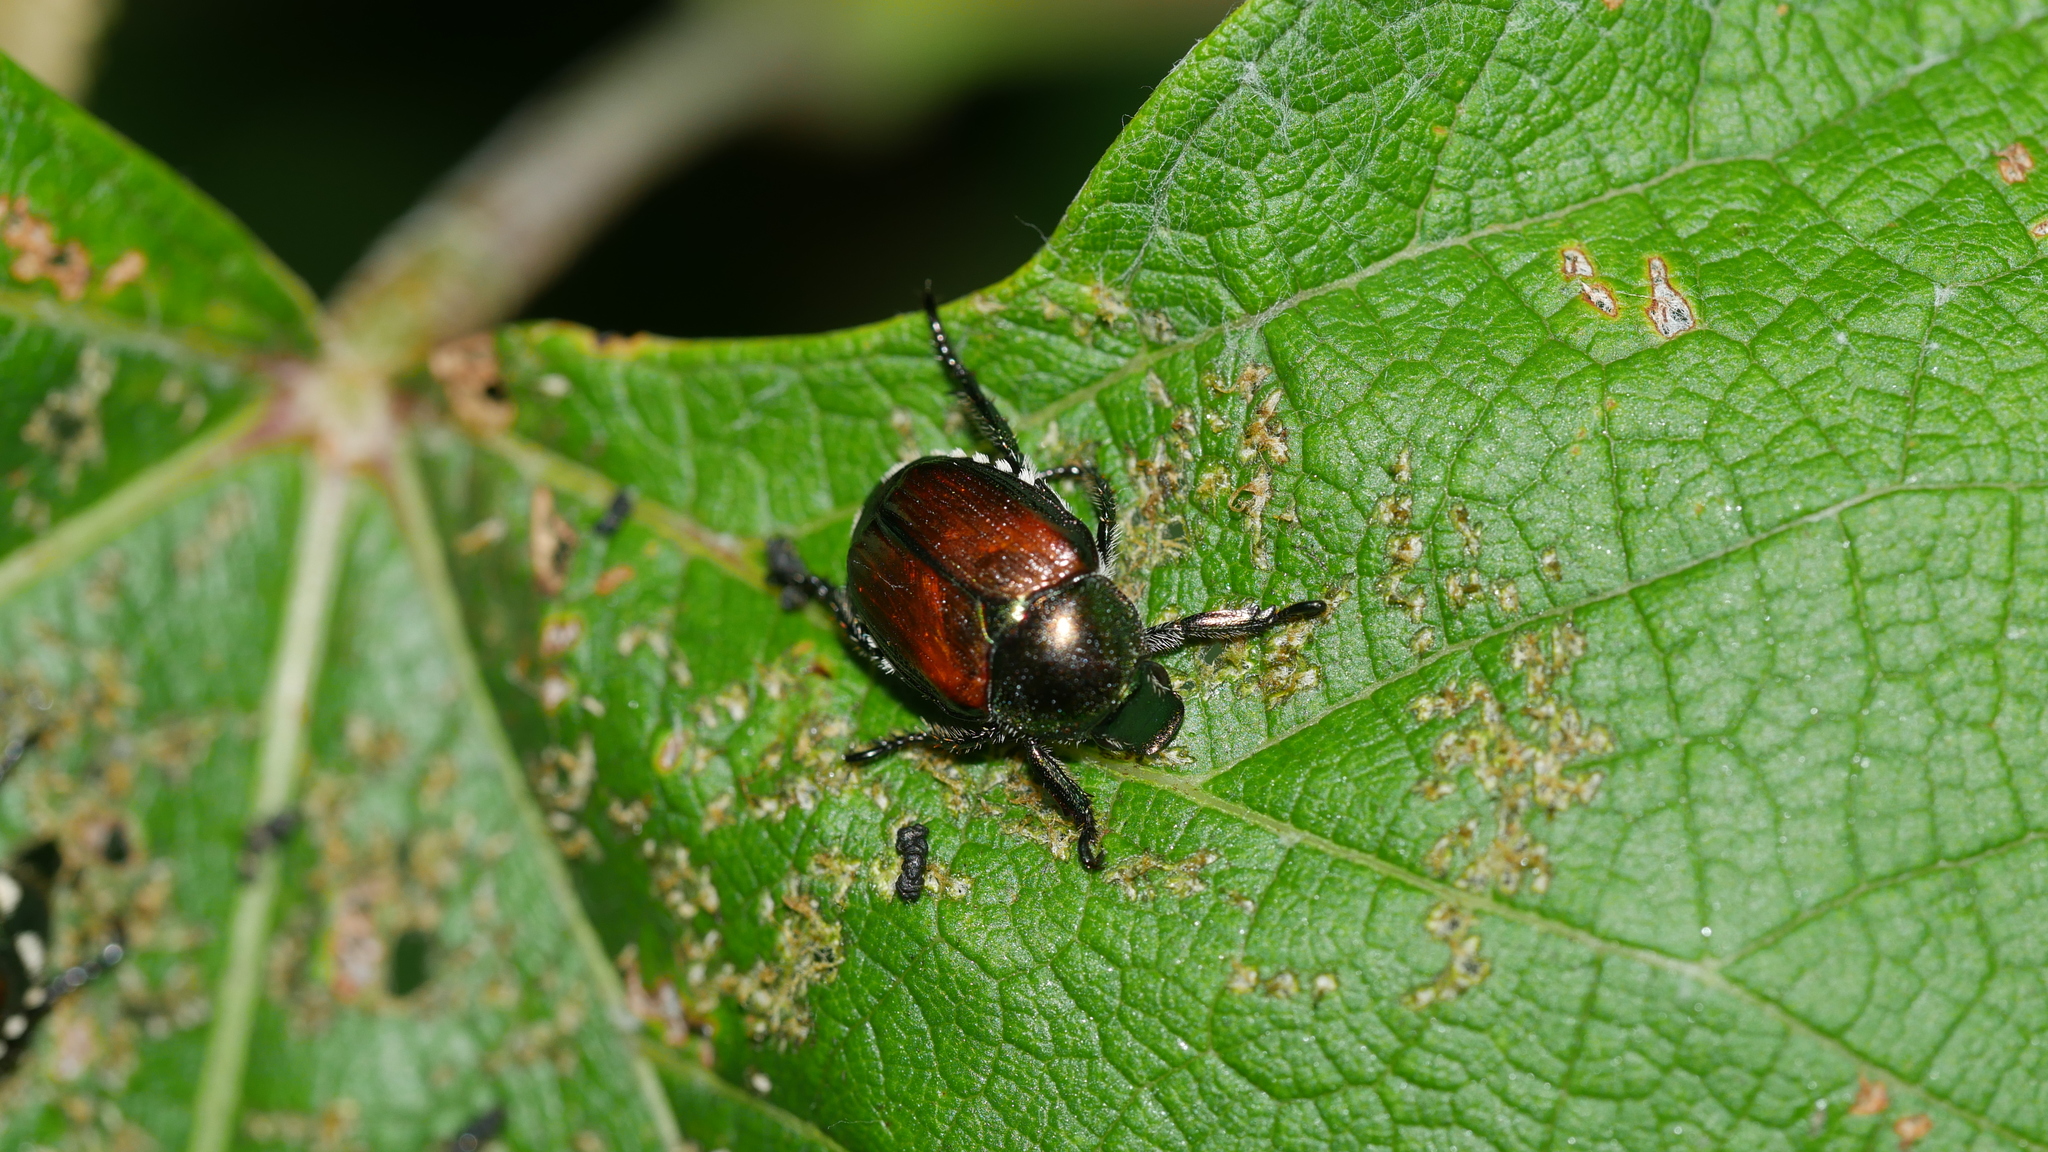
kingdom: Animalia
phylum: Arthropoda
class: Insecta
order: Coleoptera
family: Scarabaeidae
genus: Popillia
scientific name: Popillia japonica
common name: Japanese beetle
